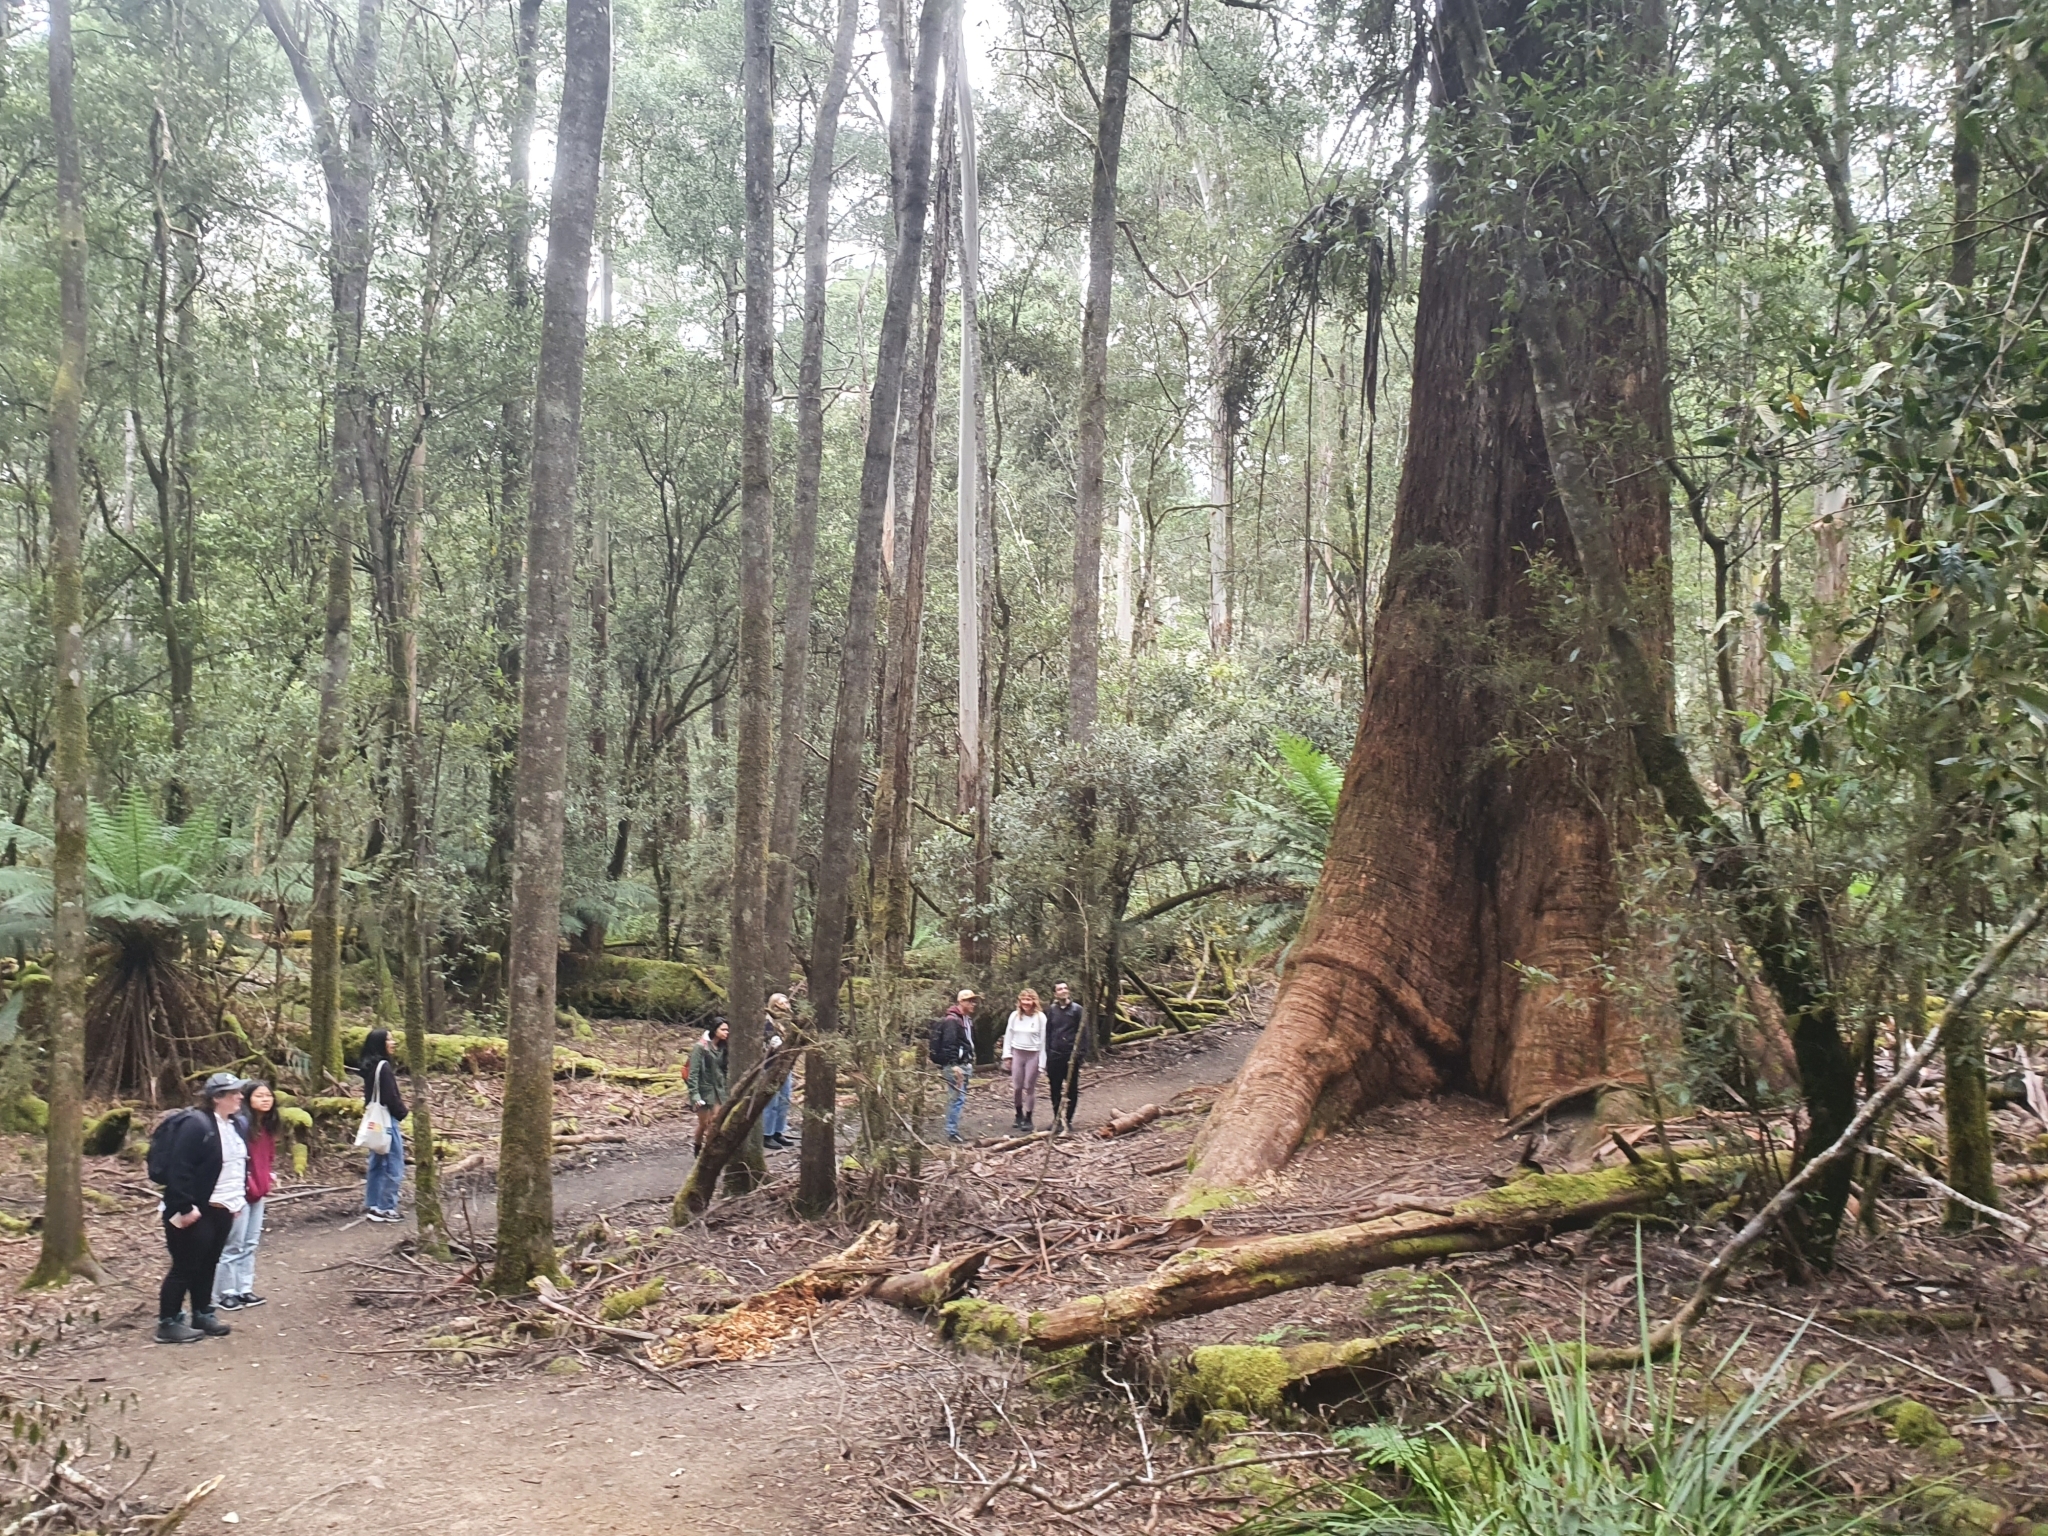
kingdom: Plantae
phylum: Tracheophyta
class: Magnoliopsida
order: Myrtales
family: Myrtaceae
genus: Eucalyptus
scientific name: Eucalyptus regnans
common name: Stringy gum
